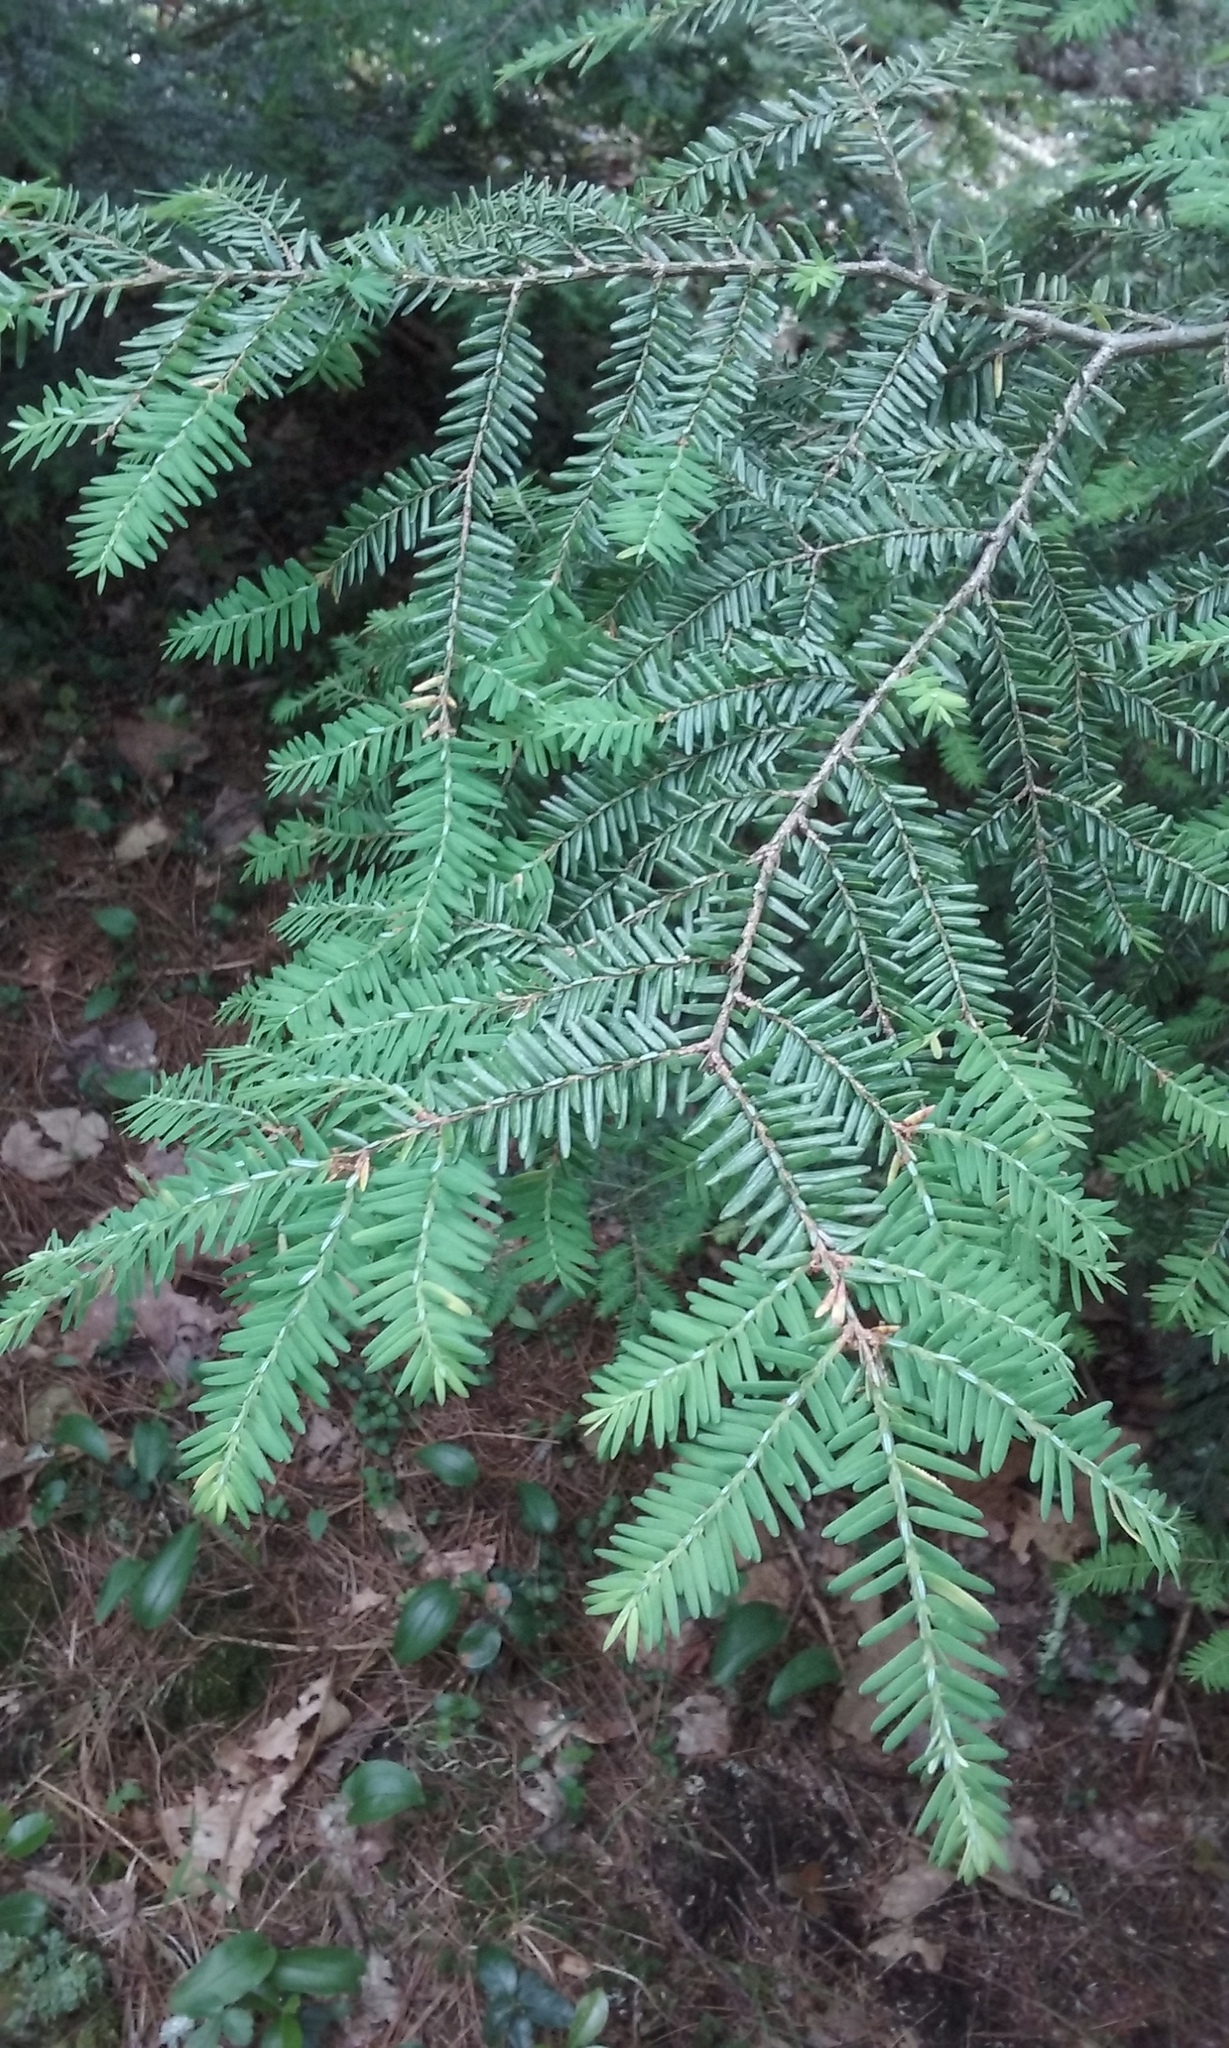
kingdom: Plantae
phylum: Tracheophyta
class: Pinopsida
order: Pinales
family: Pinaceae
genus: Tsuga
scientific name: Tsuga canadensis
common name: Eastern hemlock
